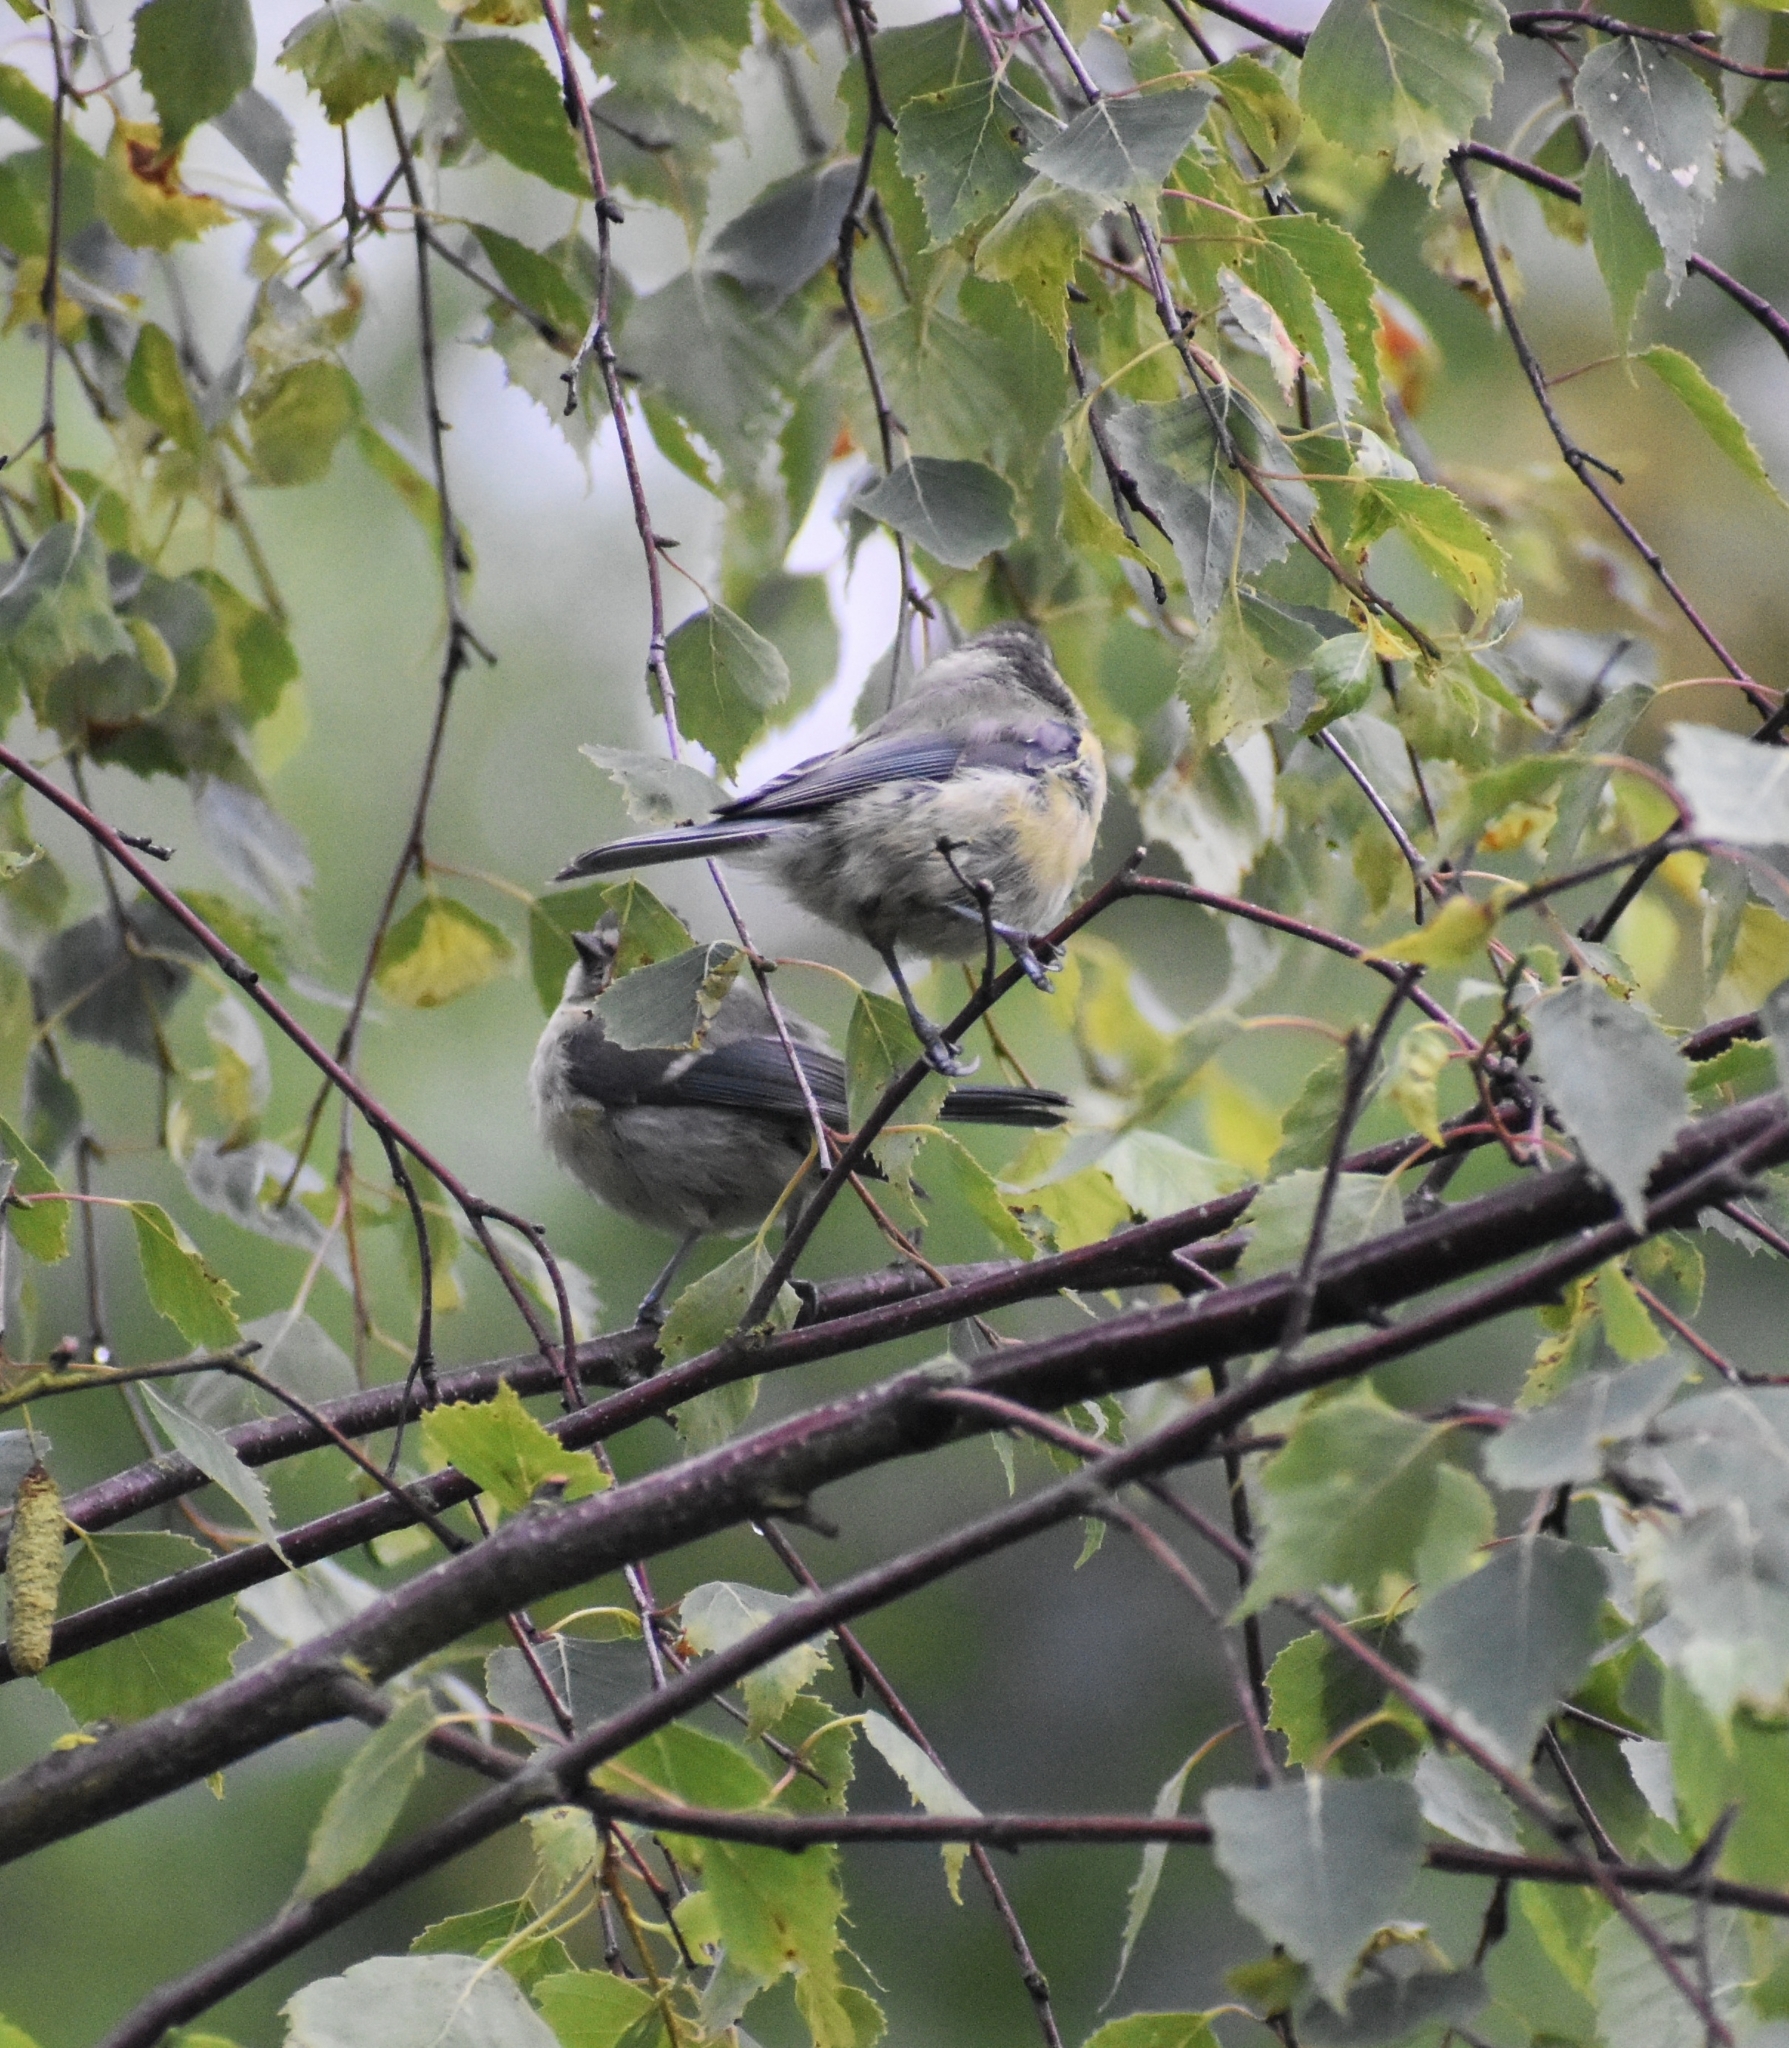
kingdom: Animalia
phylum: Chordata
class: Aves
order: Passeriformes
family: Paridae
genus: Cyanistes
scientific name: Cyanistes caeruleus
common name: Eurasian blue tit
